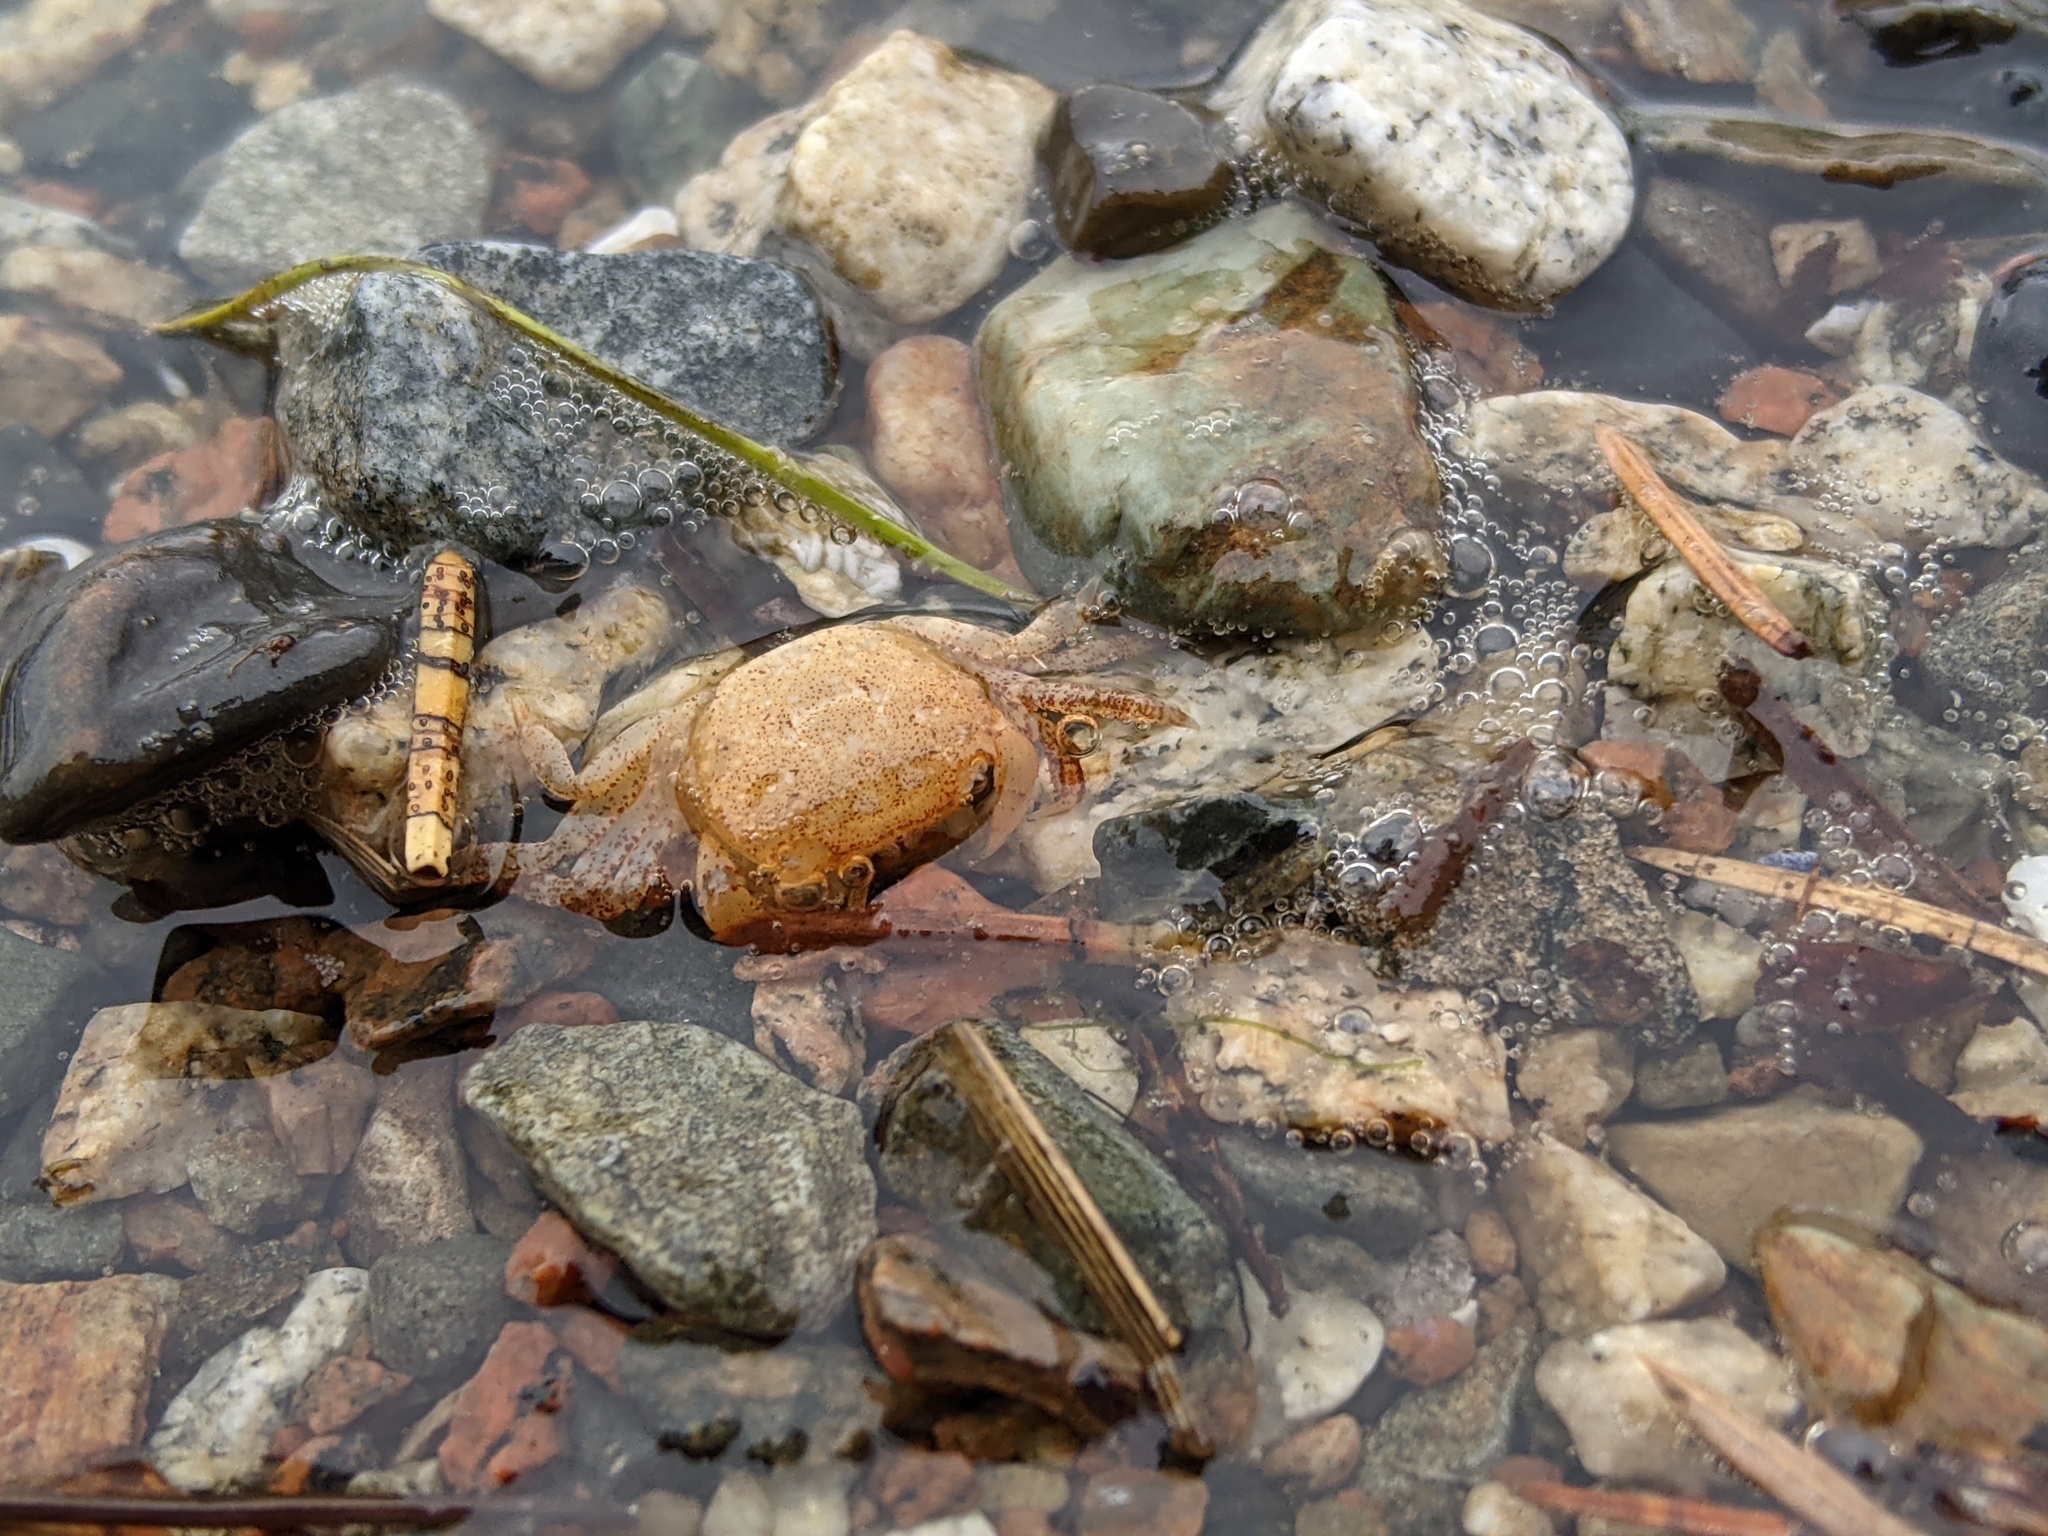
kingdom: Animalia
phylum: Arthropoda
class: Malacostraca
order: Decapoda
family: Varunidae
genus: Hemigrapsus
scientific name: Hemigrapsus oregonensis
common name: Yellow shore crab
